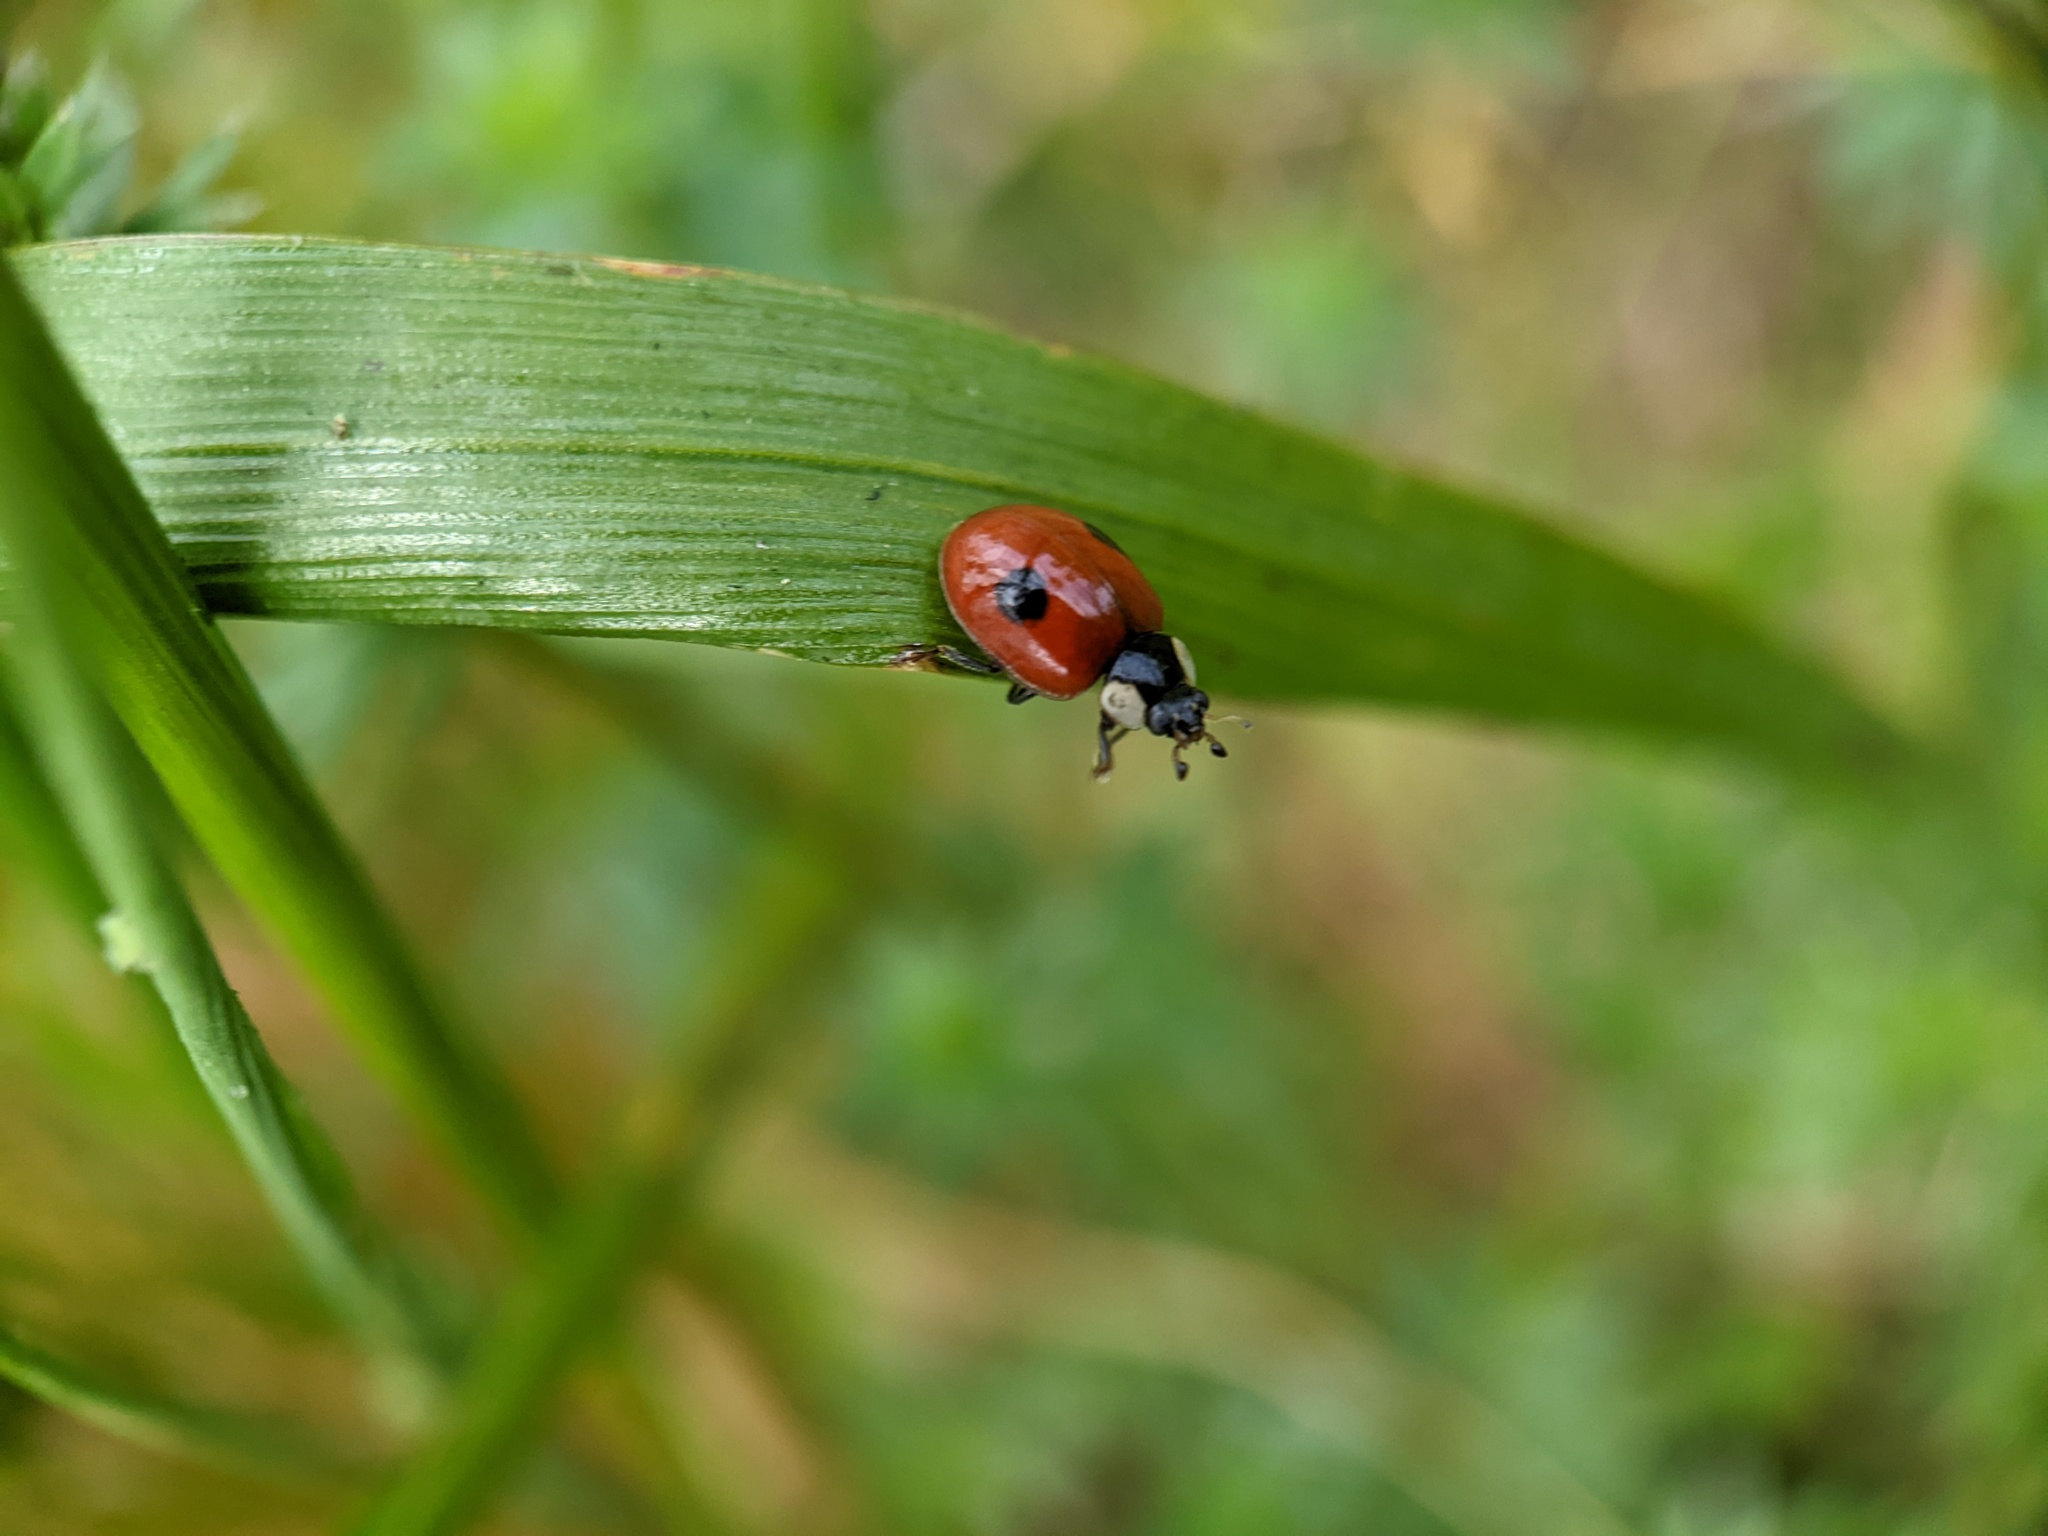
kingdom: Animalia
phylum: Arthropoda
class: Insecta
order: Coleoptera
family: Coccinellidae
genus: Adalia
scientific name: Adalia bipunctata
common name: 2-spot ladybird
